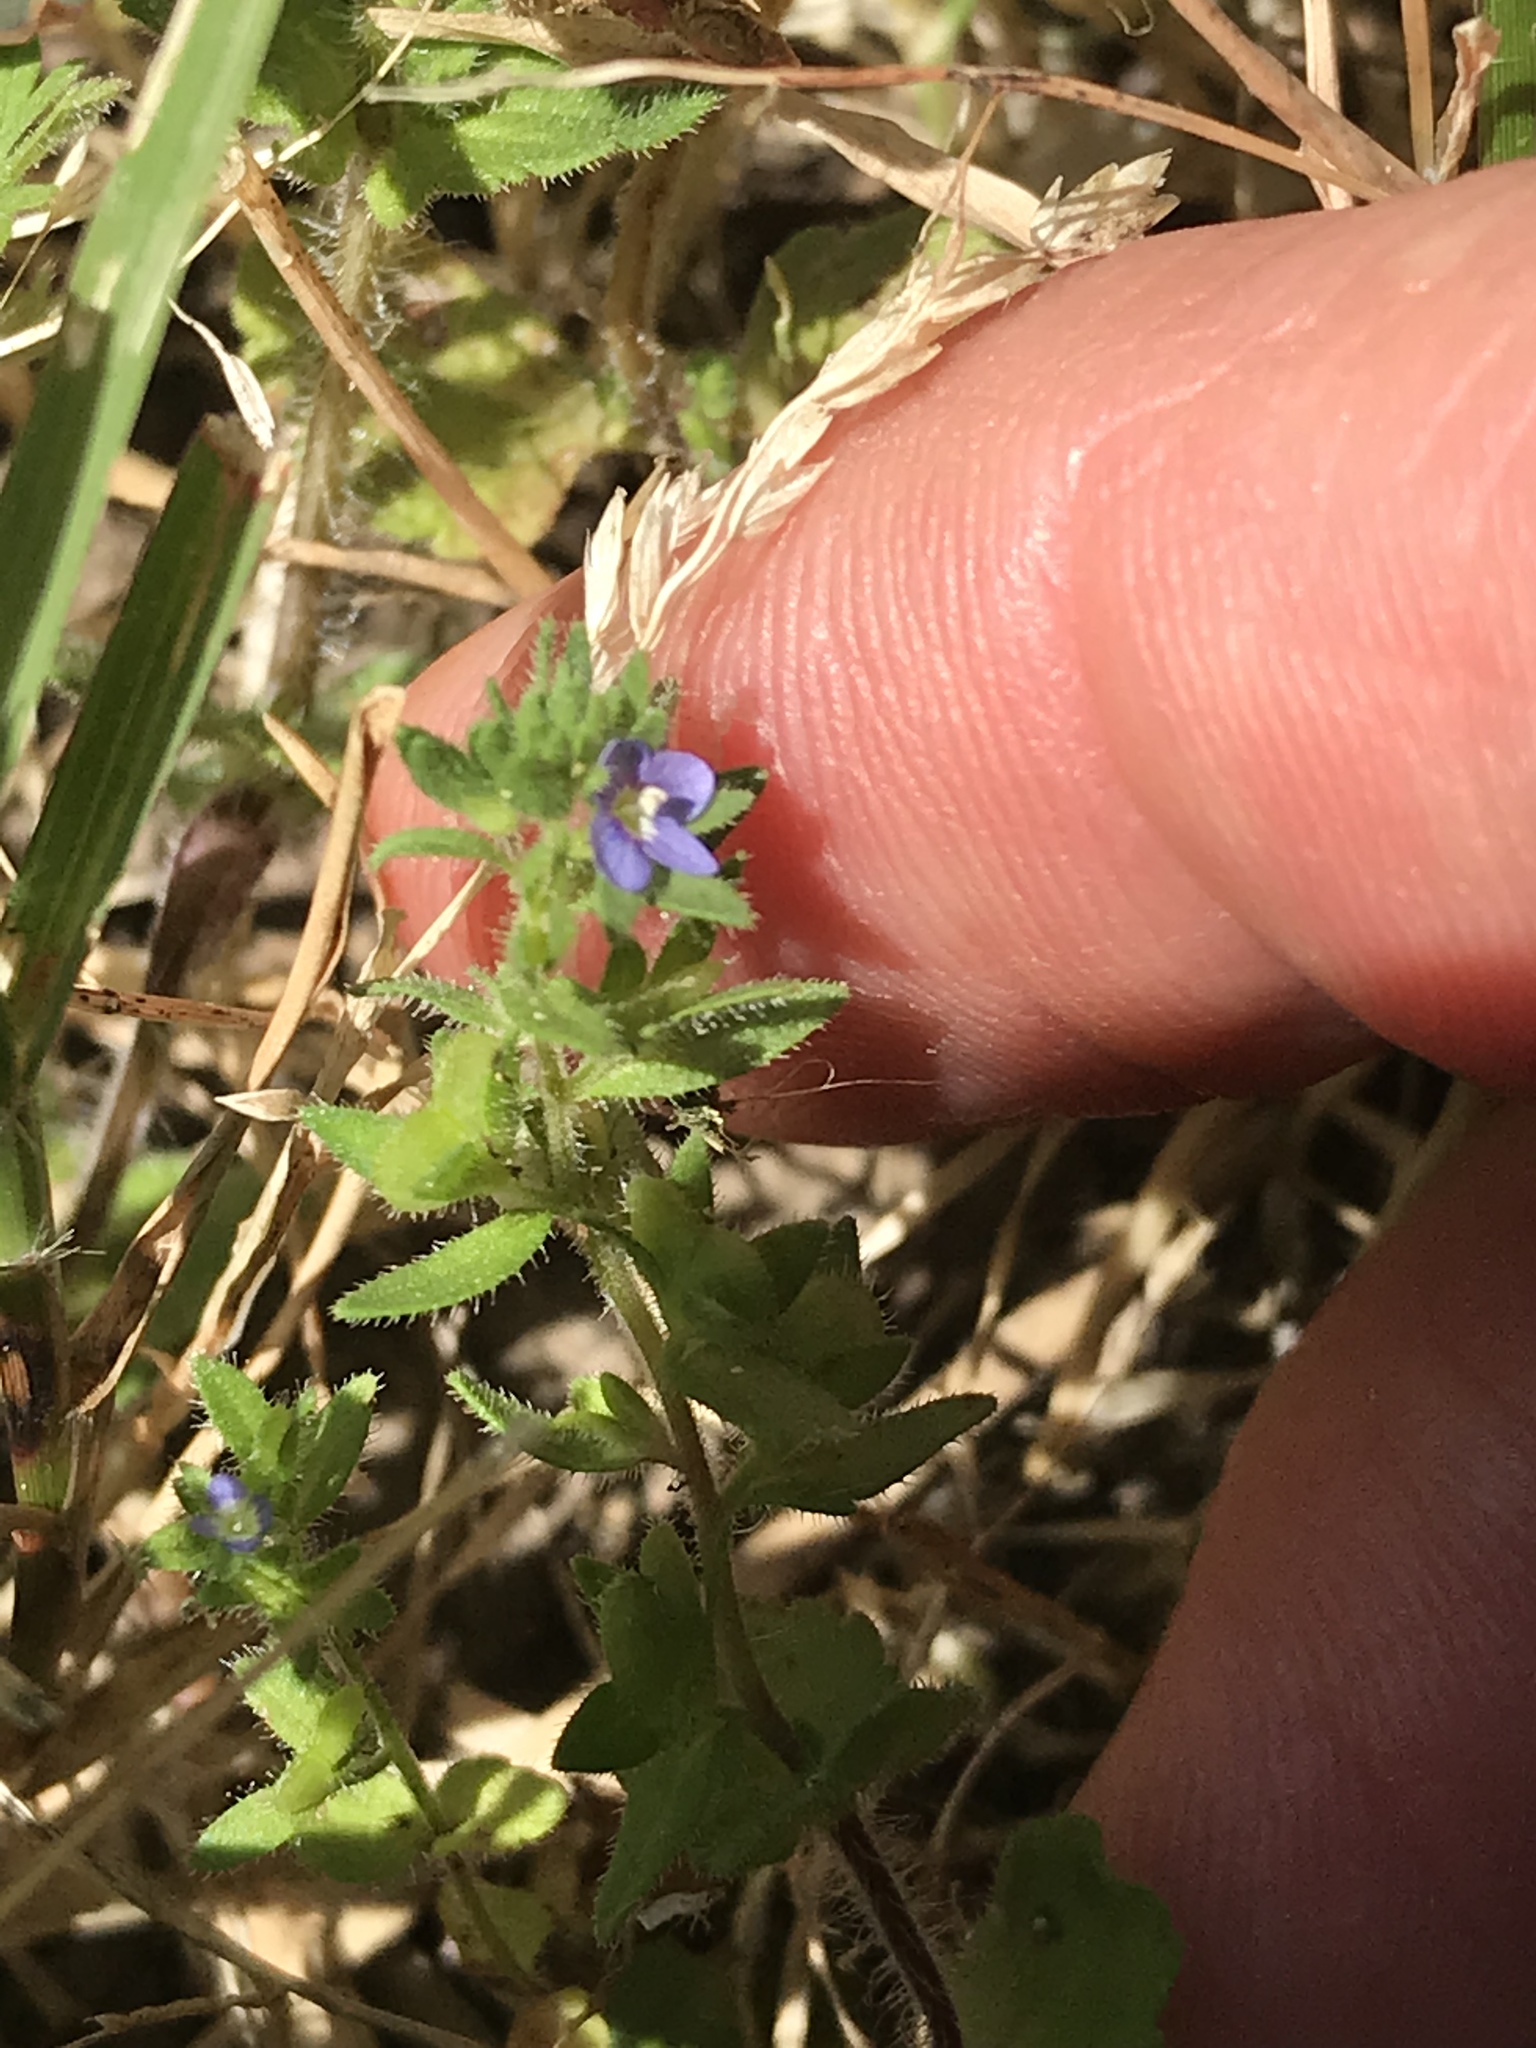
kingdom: Plantae
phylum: Tracheophyta
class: Magnoliopsida
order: Lamiales
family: Plantaginaceae
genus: Veronica
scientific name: Veronica arvensis
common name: Corn speedwell
